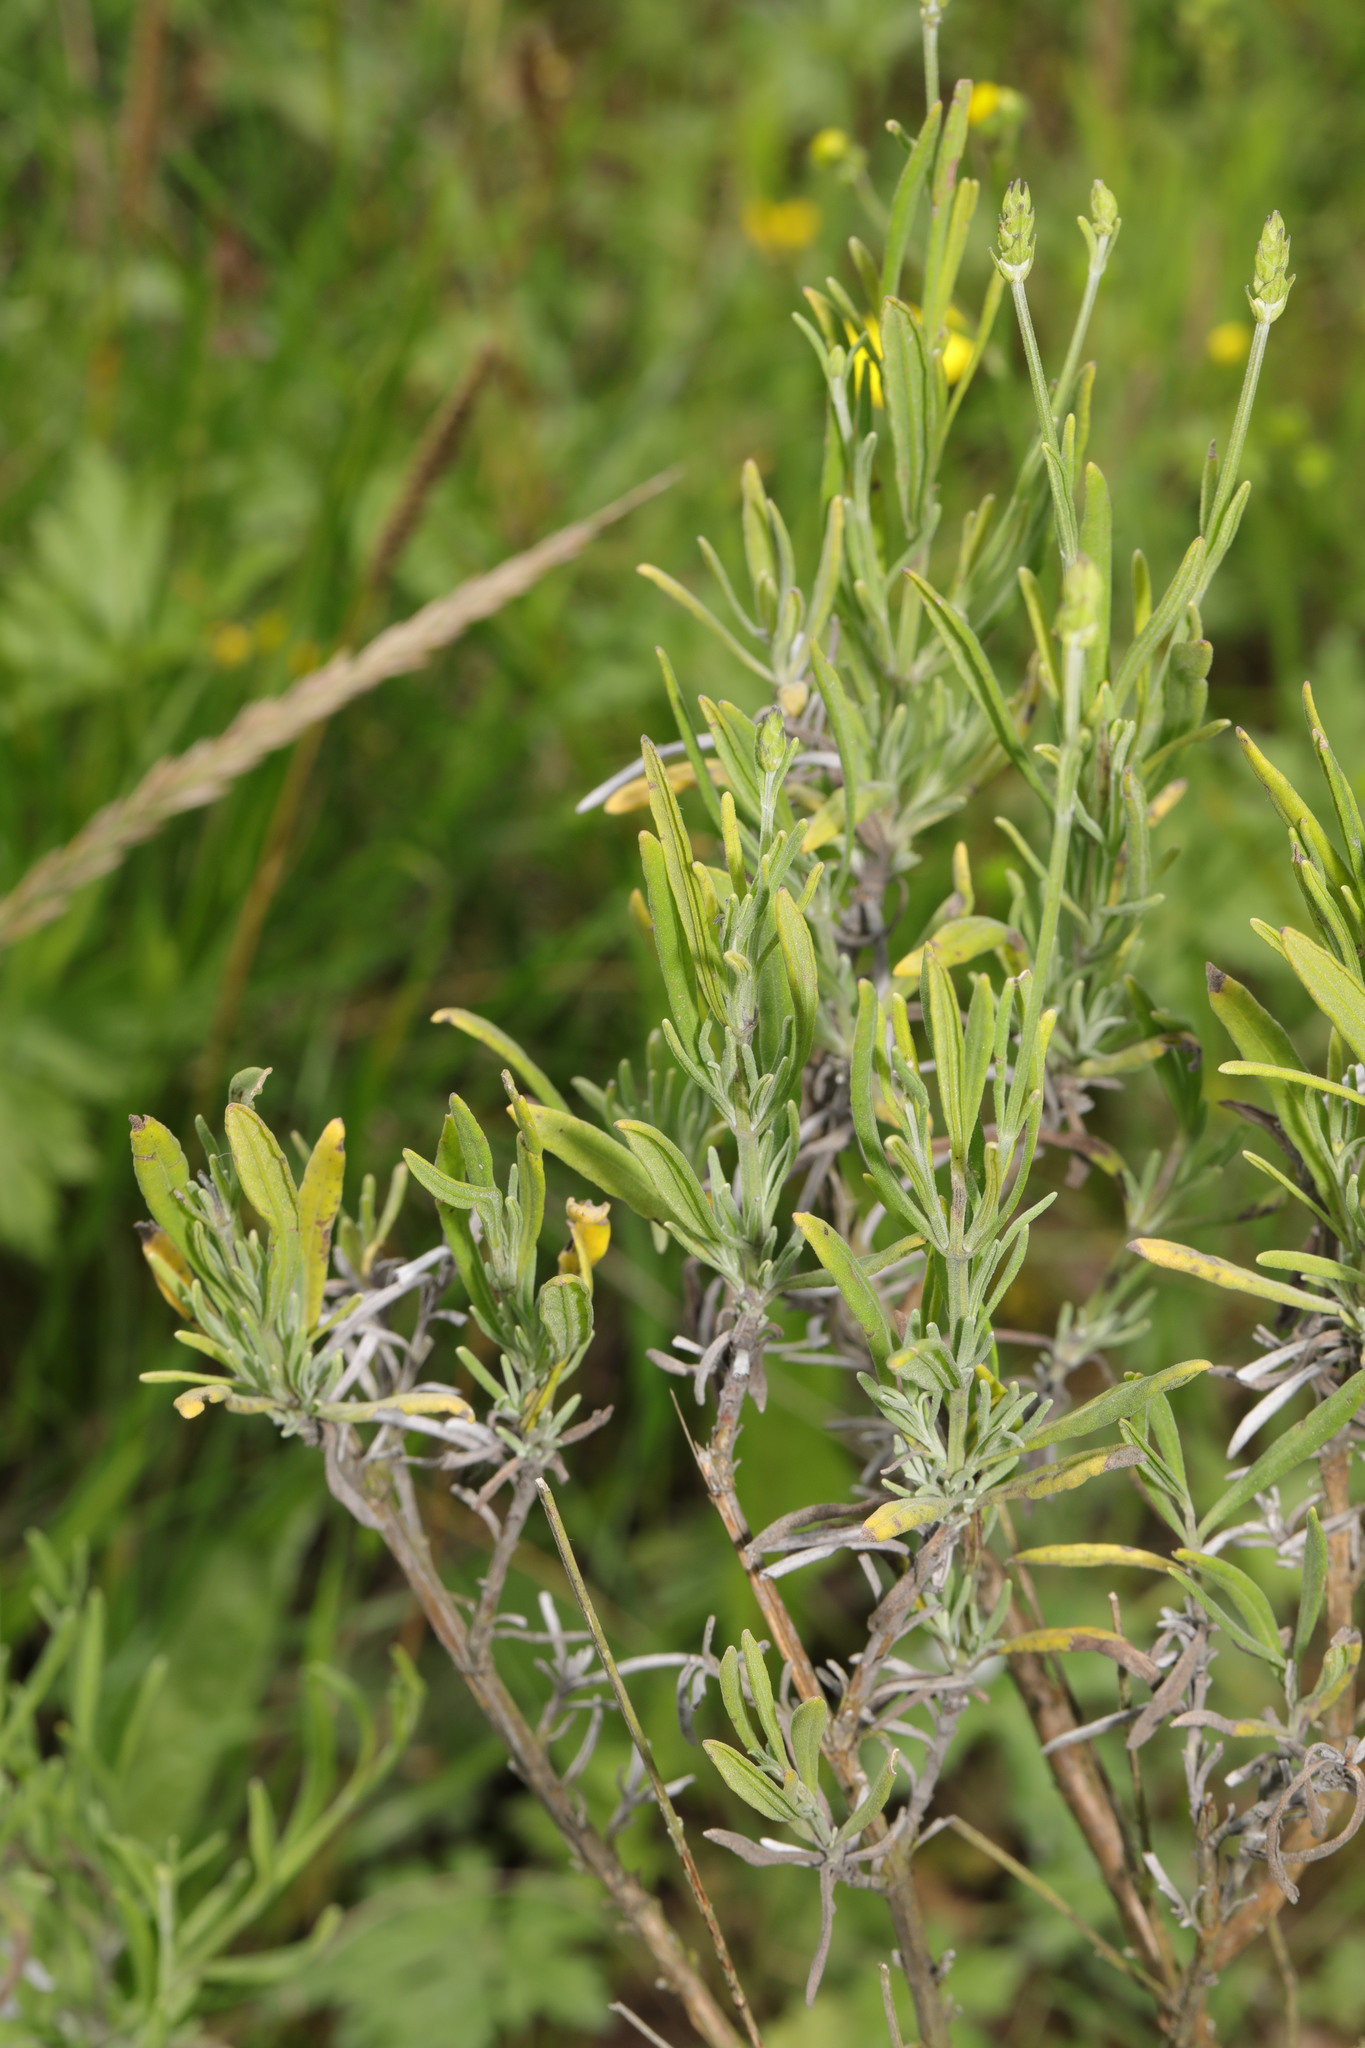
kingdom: Plantae
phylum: Tracheophyta
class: Magnoliopsida
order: Lamiales
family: Lamiaceae
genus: Lavandula
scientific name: Lavandula angustifolia
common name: Garden lavender
